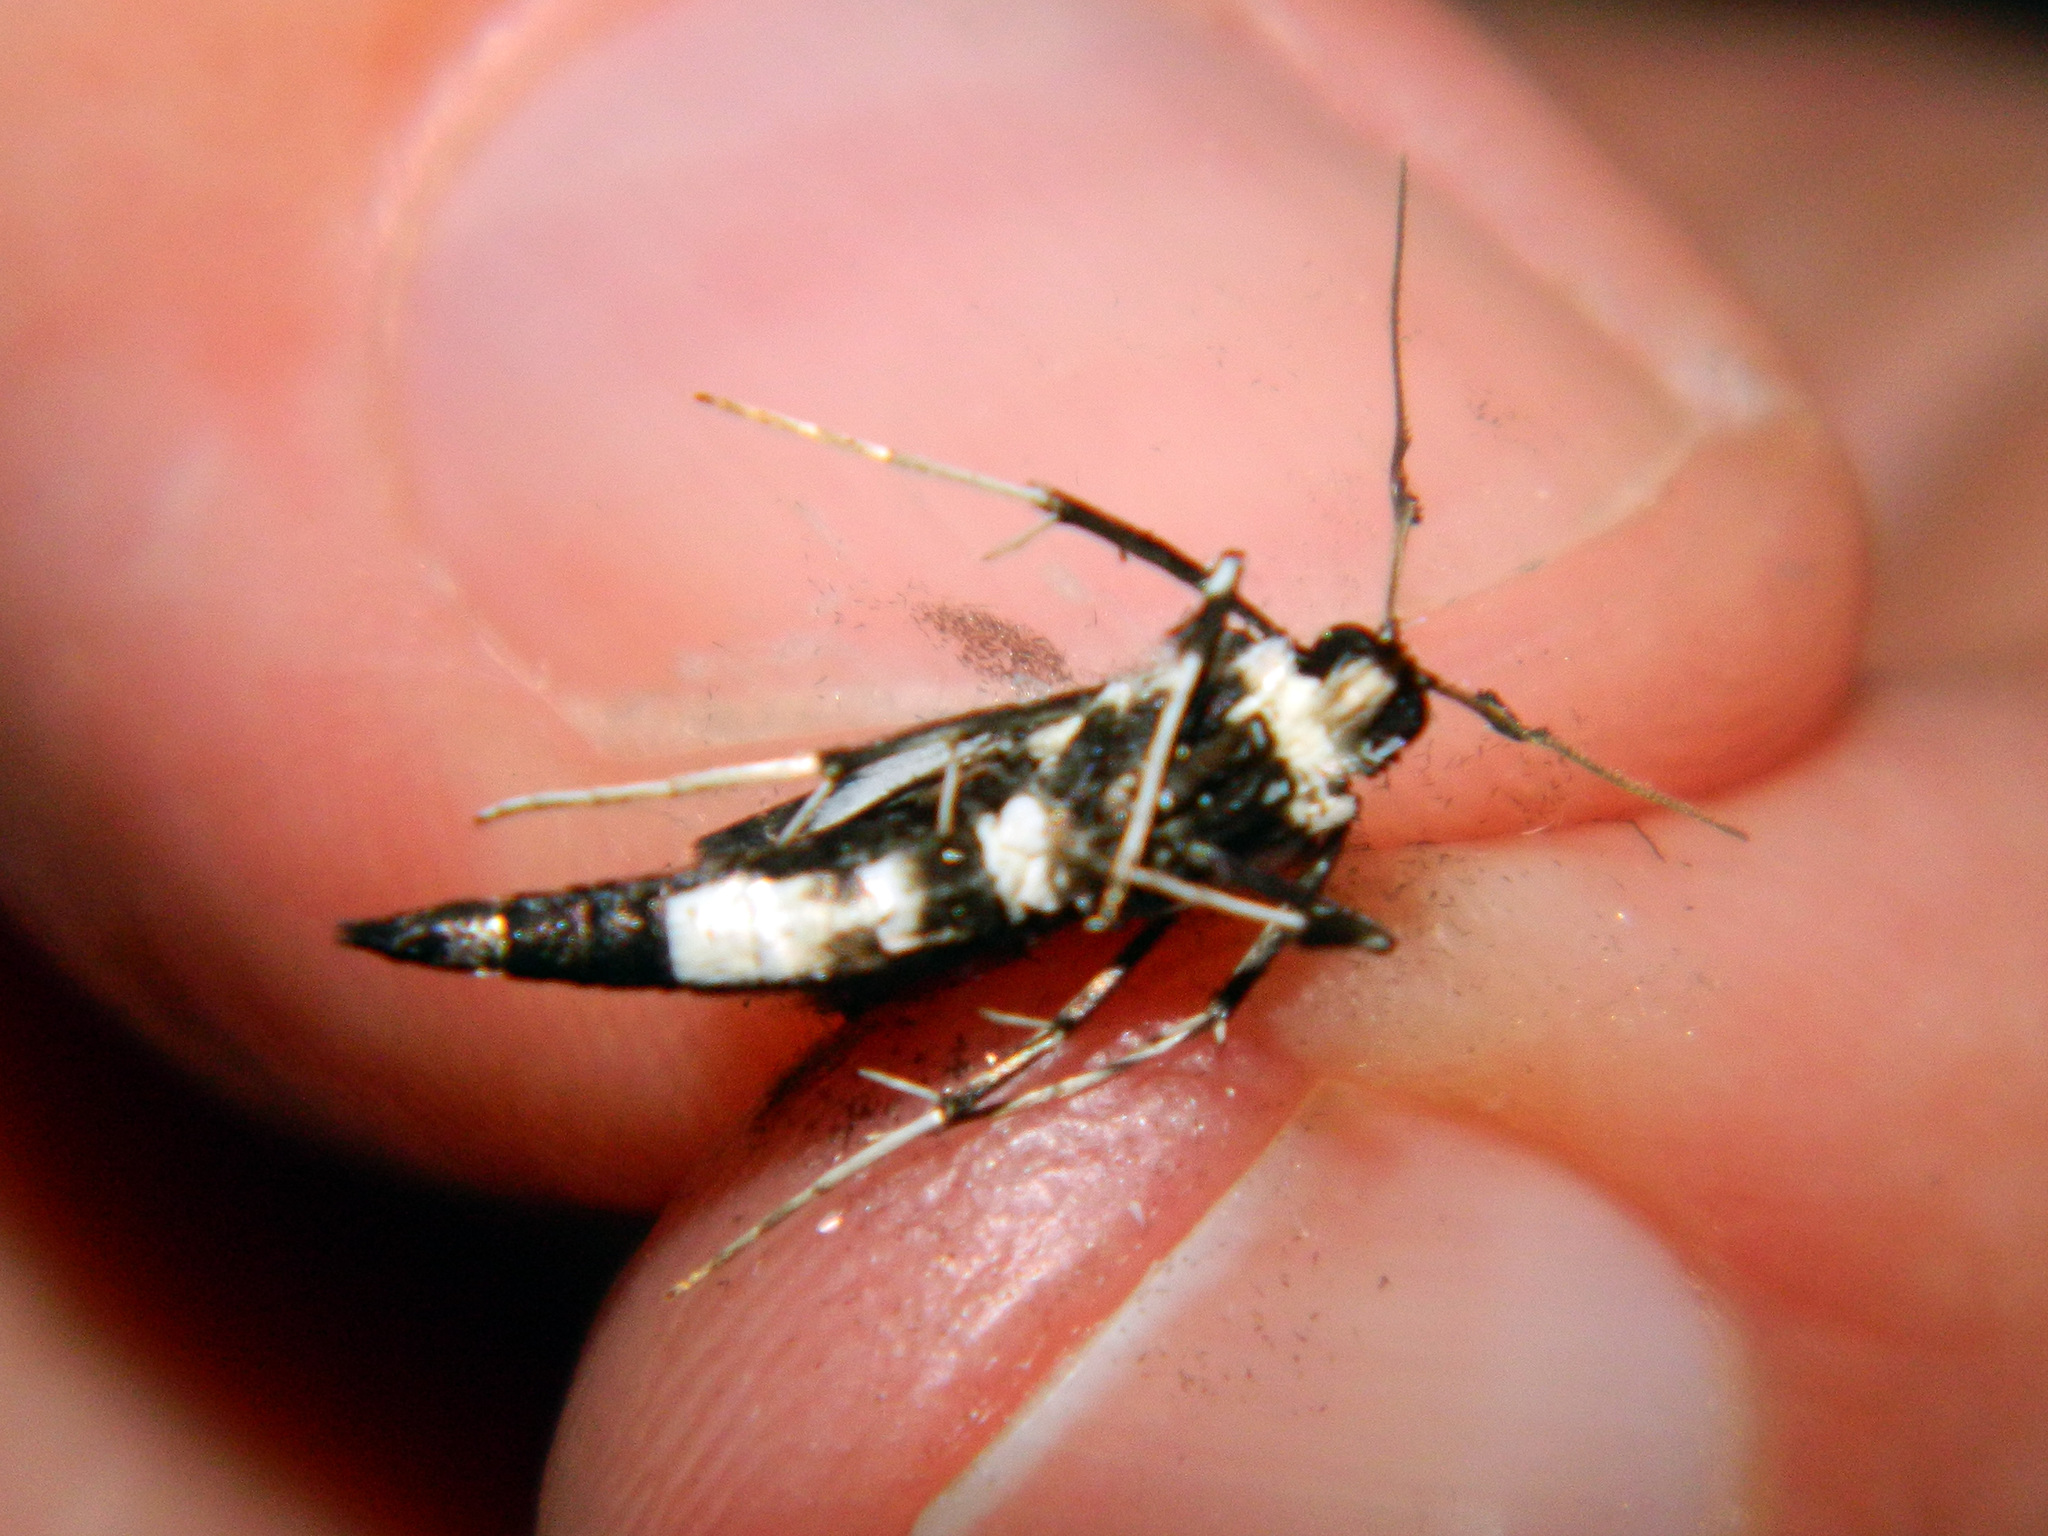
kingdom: Animalia
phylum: Arthropoda
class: Insecta
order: Lepidoptera
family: Crambidae
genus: Desmia
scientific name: Desmia funeralis
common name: Grape leaf folder moth
